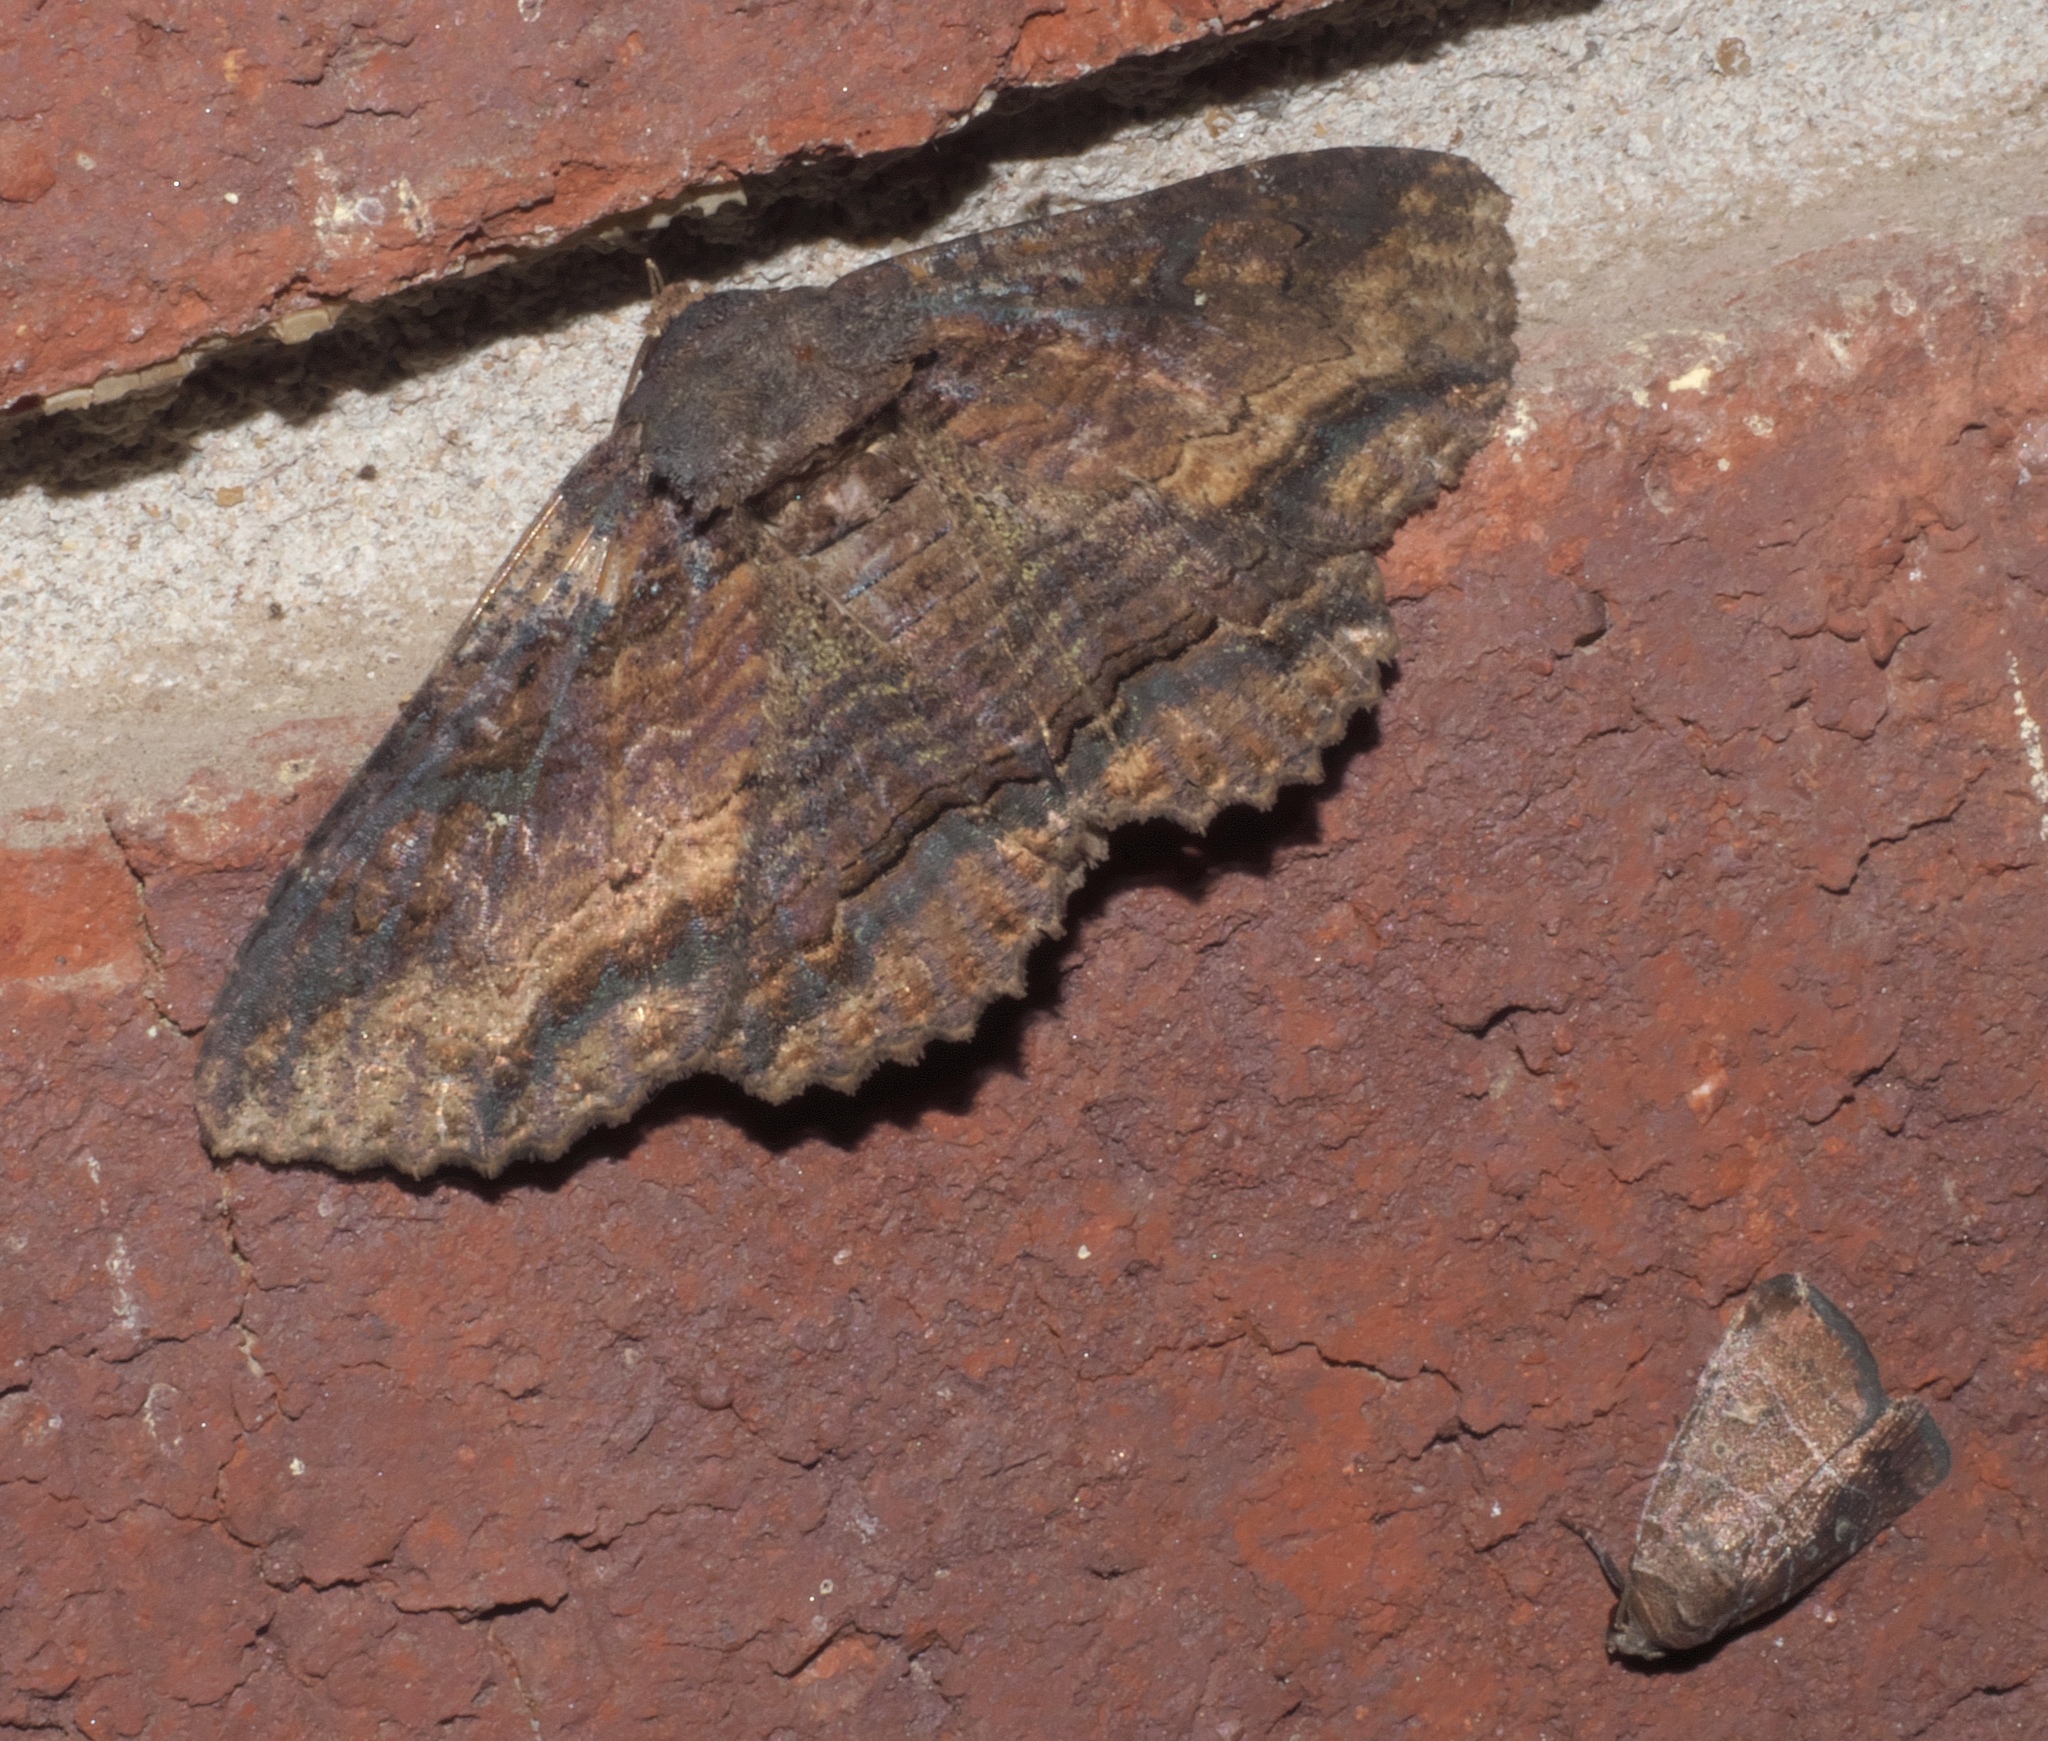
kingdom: Animalia
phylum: Arthropoda
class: Insecta
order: Lepidoptera
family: Erebidae
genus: Zale
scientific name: Zale lunata
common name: Lunate zale moth
